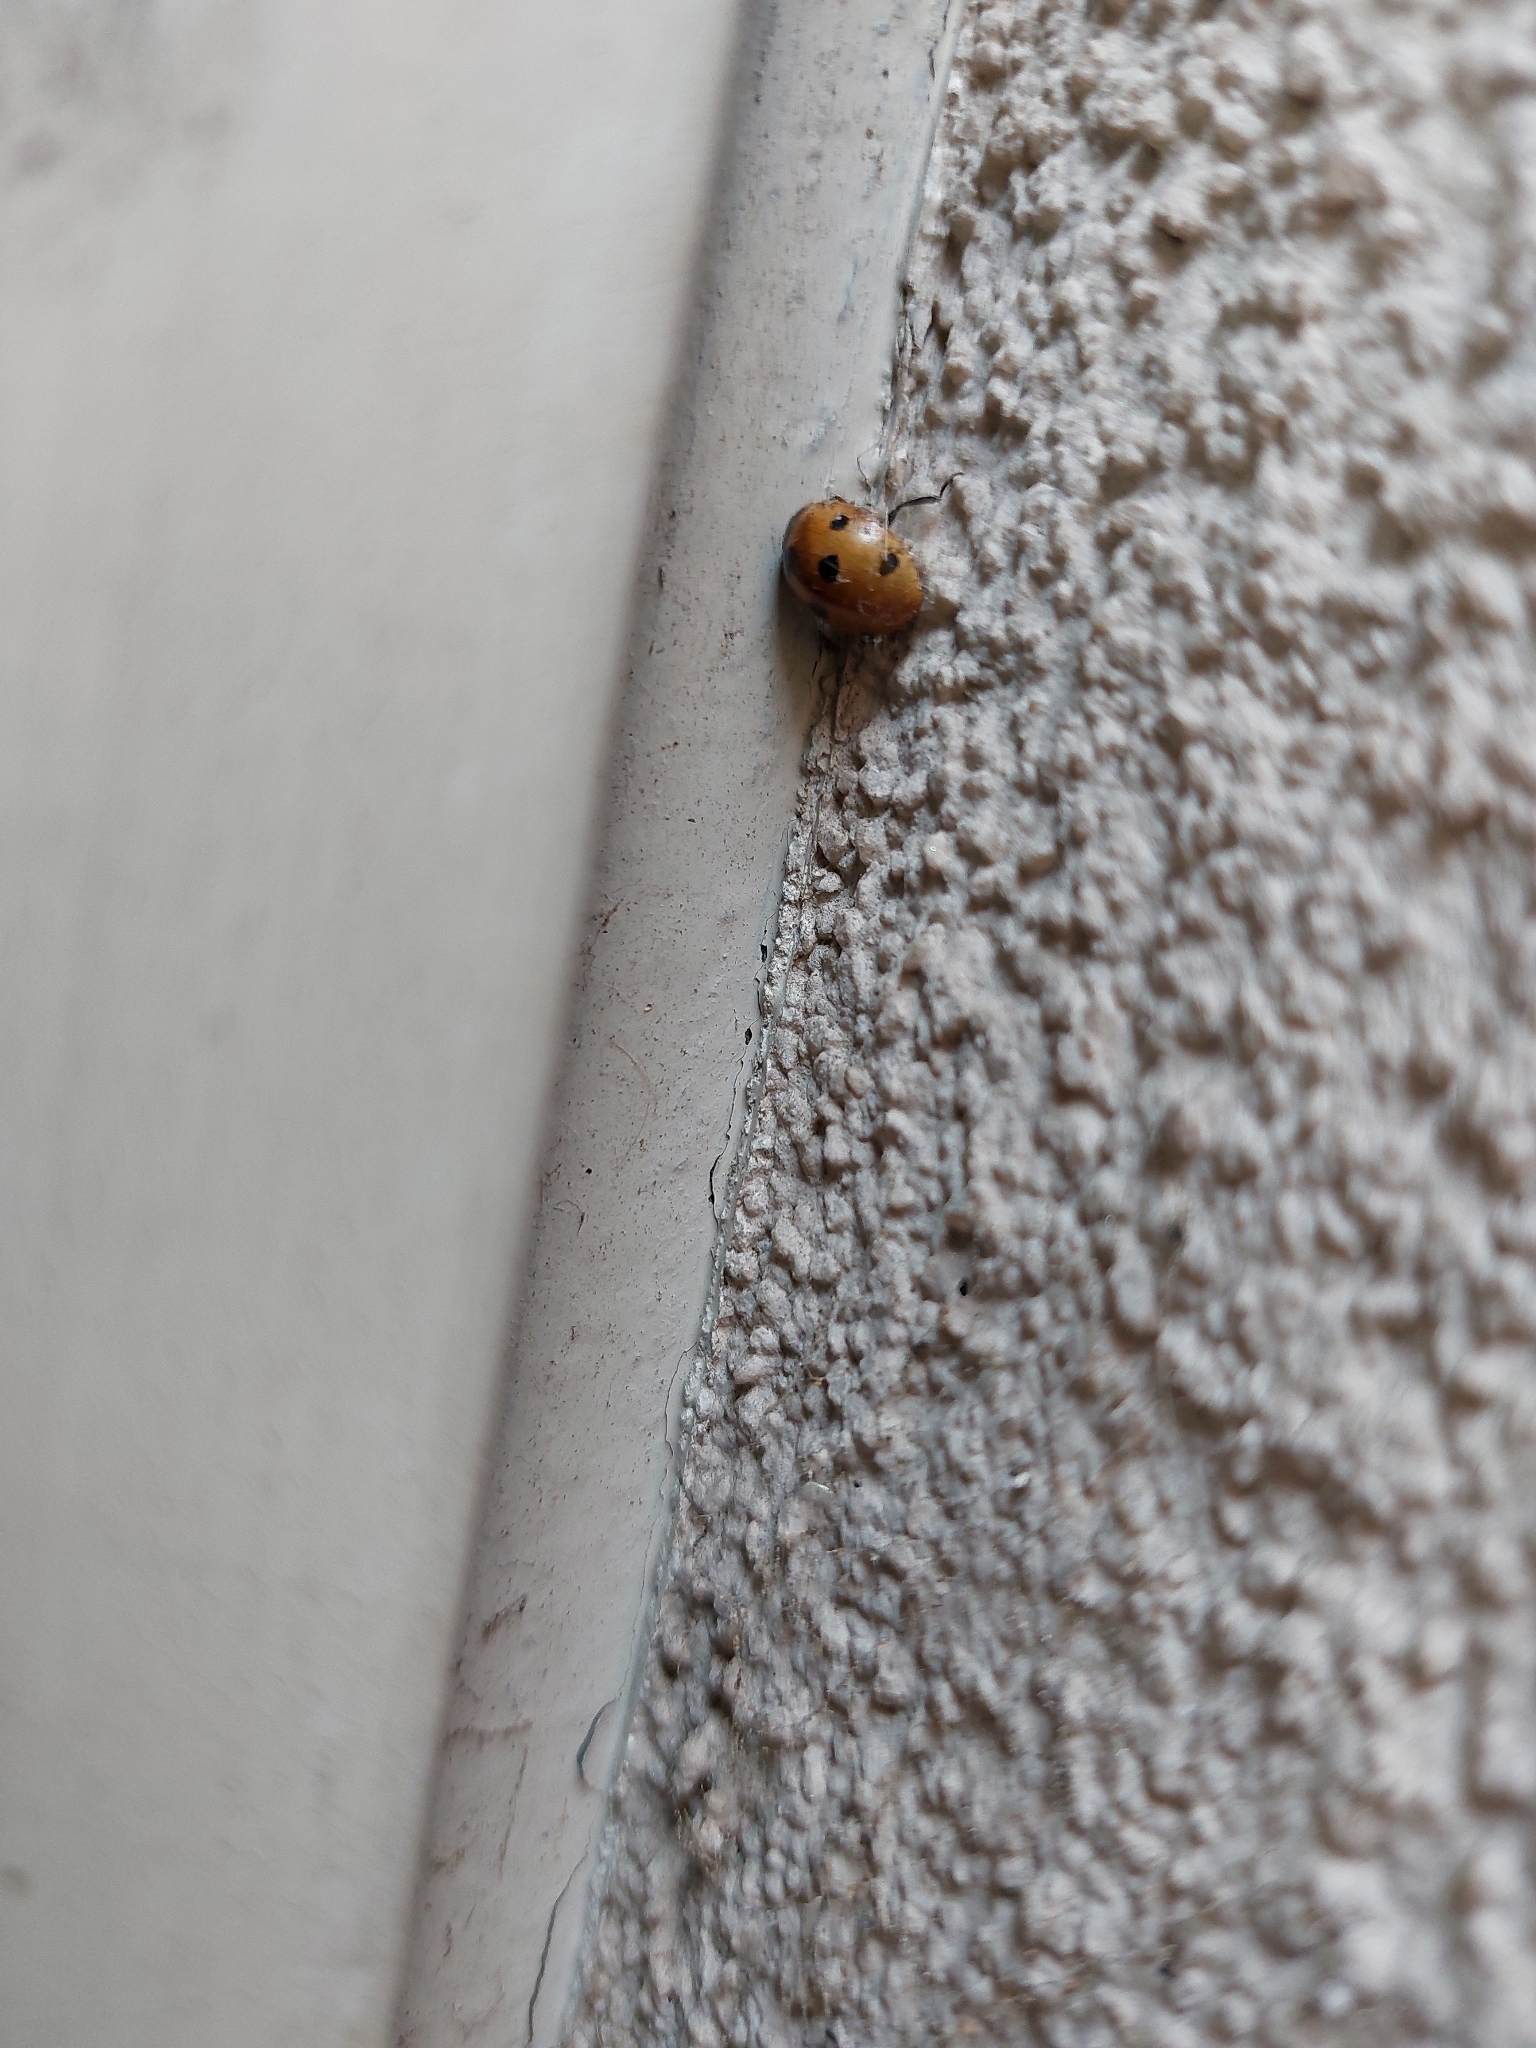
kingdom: Animalia
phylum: Arthropoda
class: Insecta
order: Coleoptera
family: Coccinellidae
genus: Coccinella
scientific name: Coccinella septempunctata
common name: Sevenspotted lady beetle
